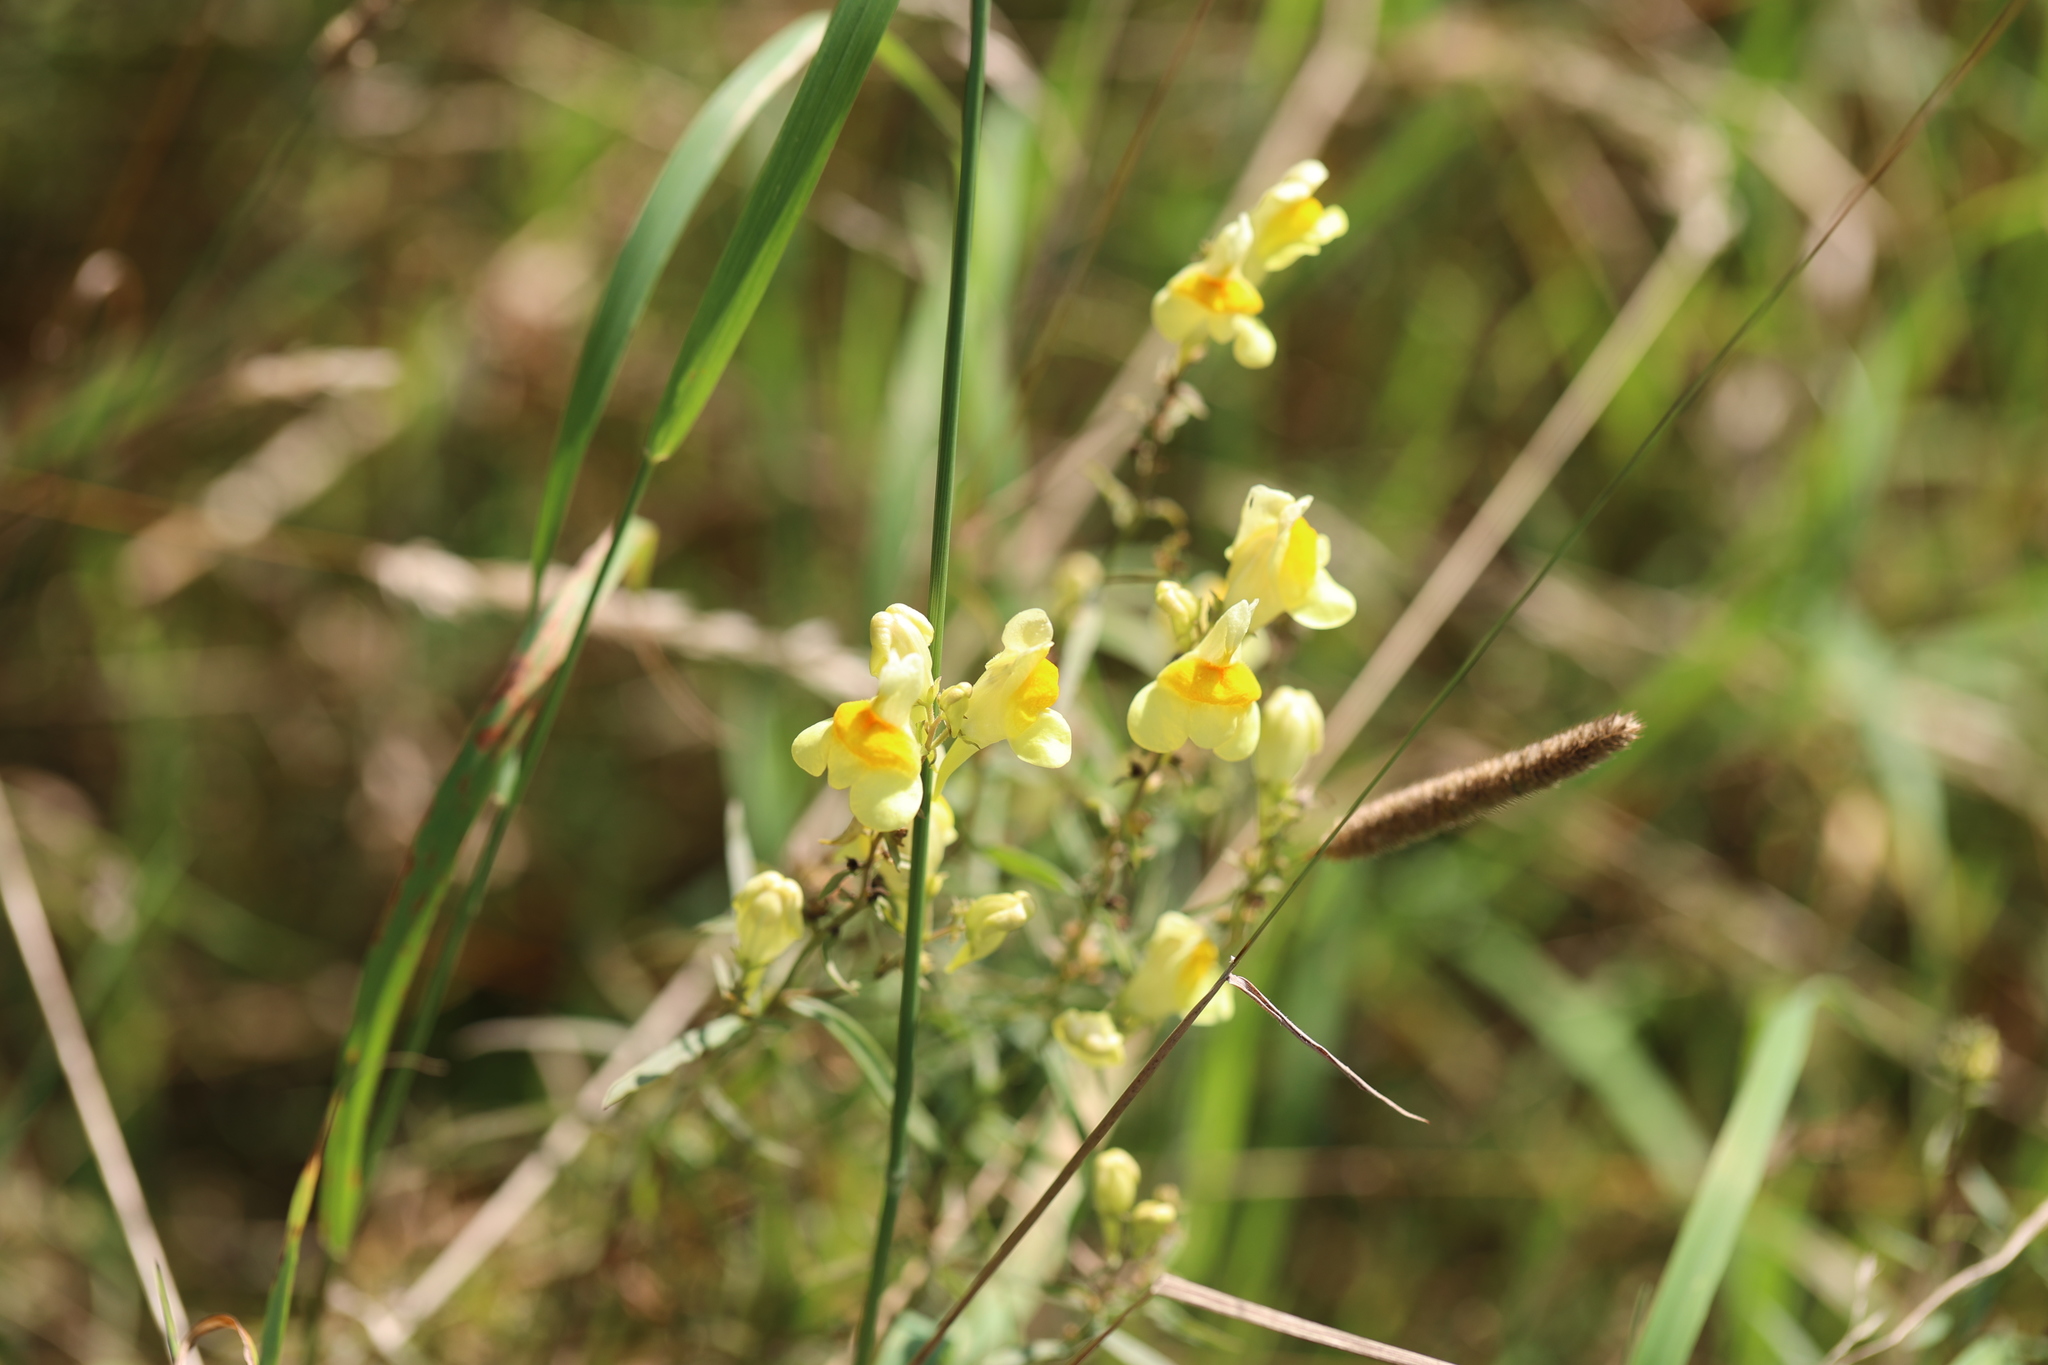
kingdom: Plantae
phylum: Tracheophyta
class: Magnoliopsida
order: Lamiales
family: Plantaginaceae
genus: Linaria
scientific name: Linaria vulgaris
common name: Butter and eggs
